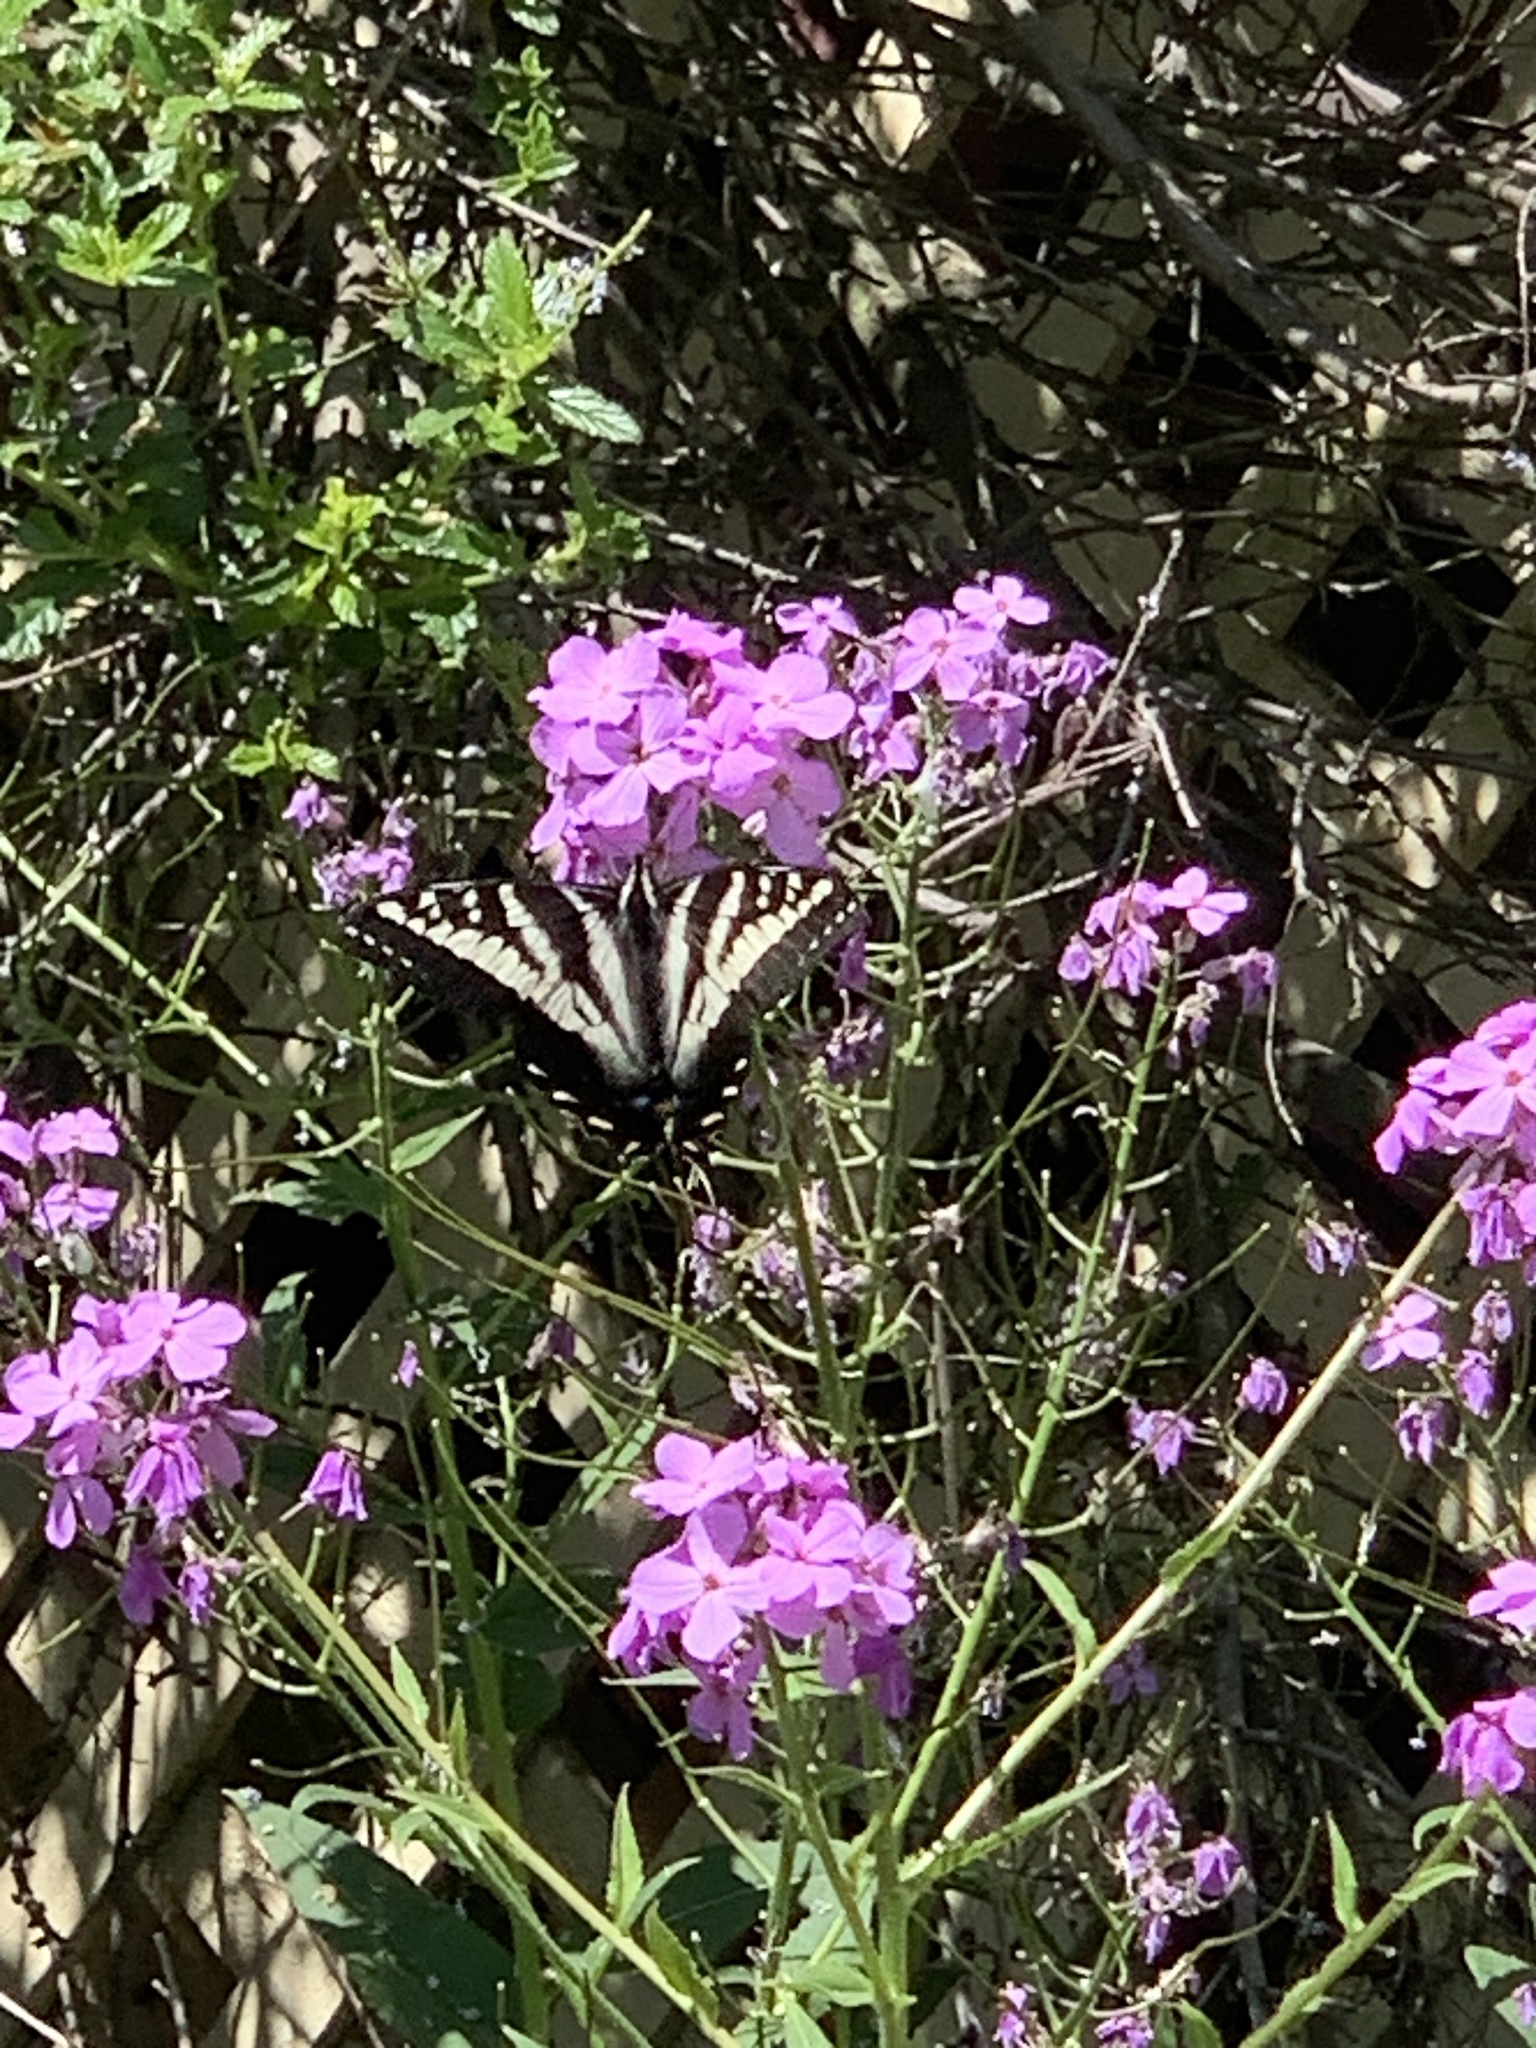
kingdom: Animalia
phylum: Arthropoda
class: Insecta
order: Lepidoptera
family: Papilionidae
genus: Papilio
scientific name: Papilio eurymedon
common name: Pale tiger swallowtail
